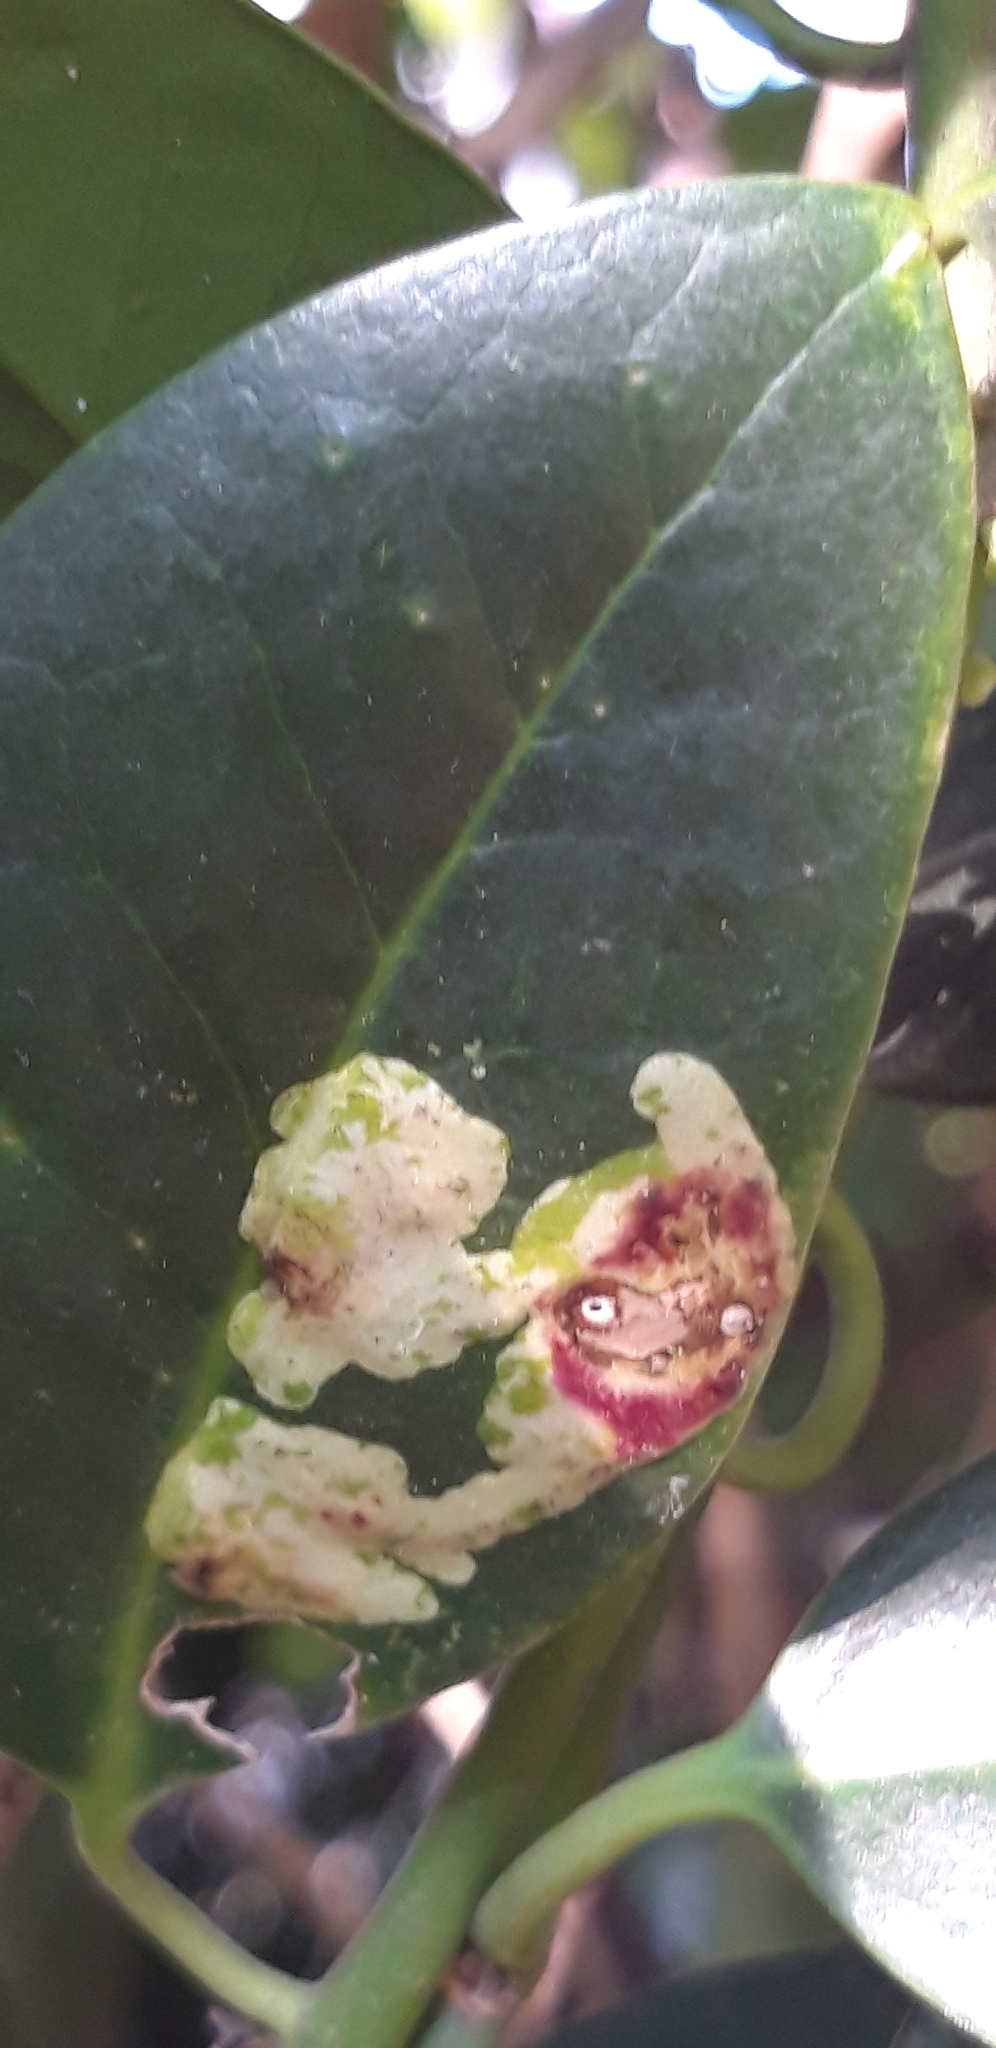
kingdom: Animalia
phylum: Arthropoda
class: Insecta
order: Diptera
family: Agromyzidae
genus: Phytomyza
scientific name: Phytomyza ilicis
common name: Holly leafminer
